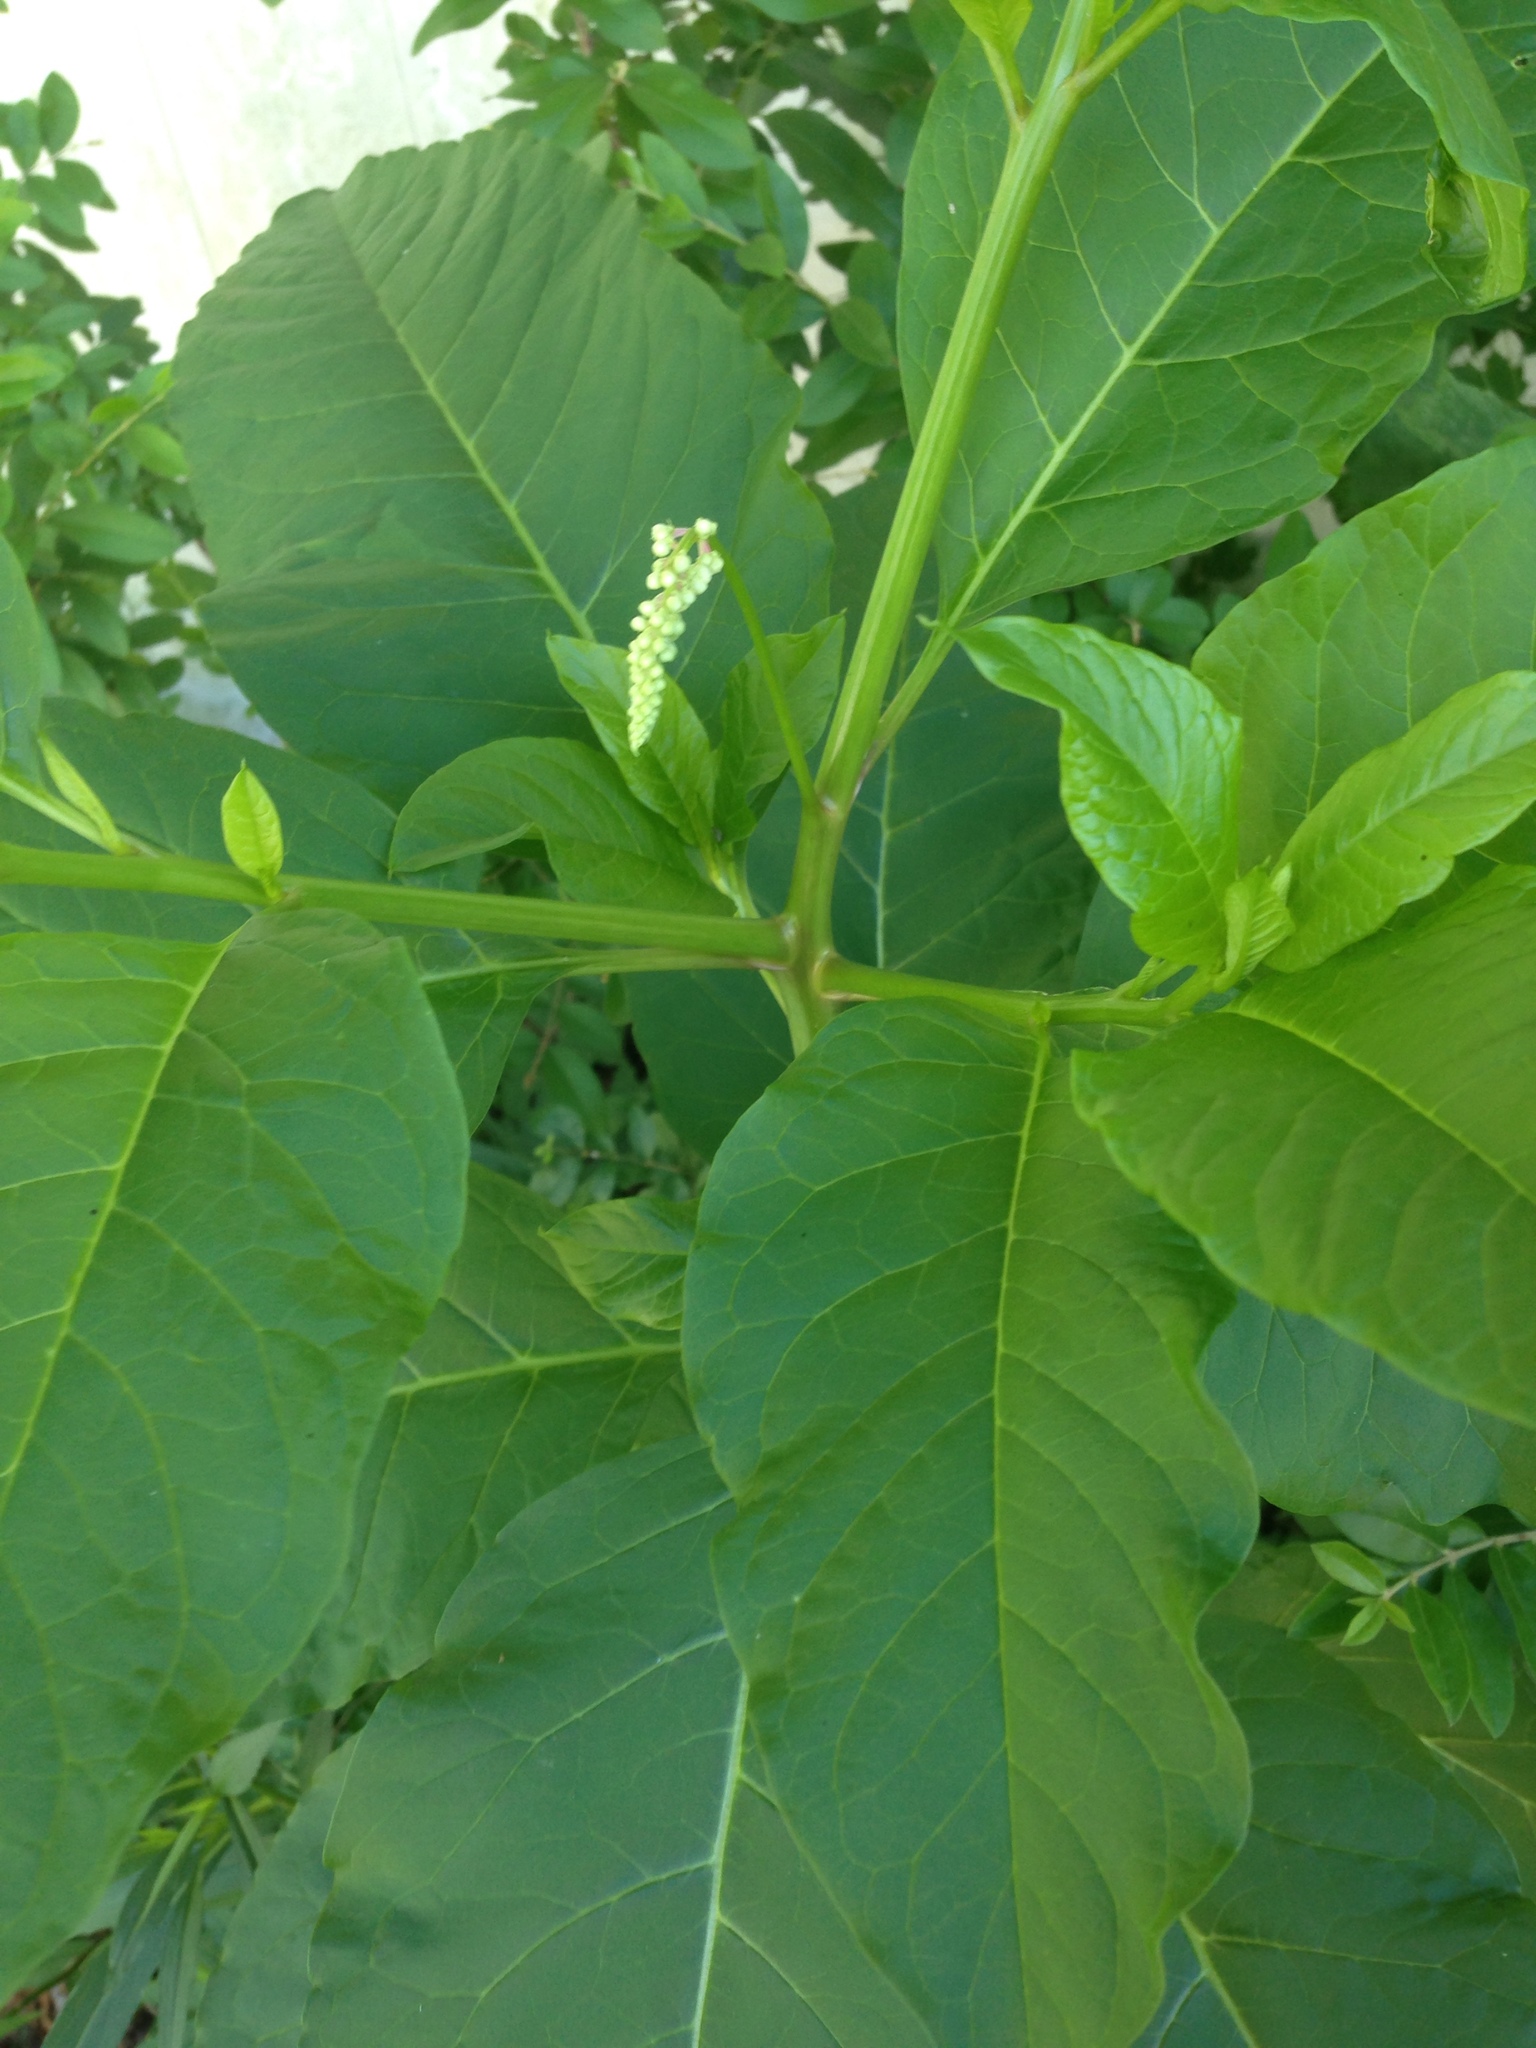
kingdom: Plantae
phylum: Tracheophyta
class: Magnoliopsida
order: Caryophyllales
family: Phytolaccaceae
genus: Phytolacca
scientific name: Phytolacca americana
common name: American pokeweed
